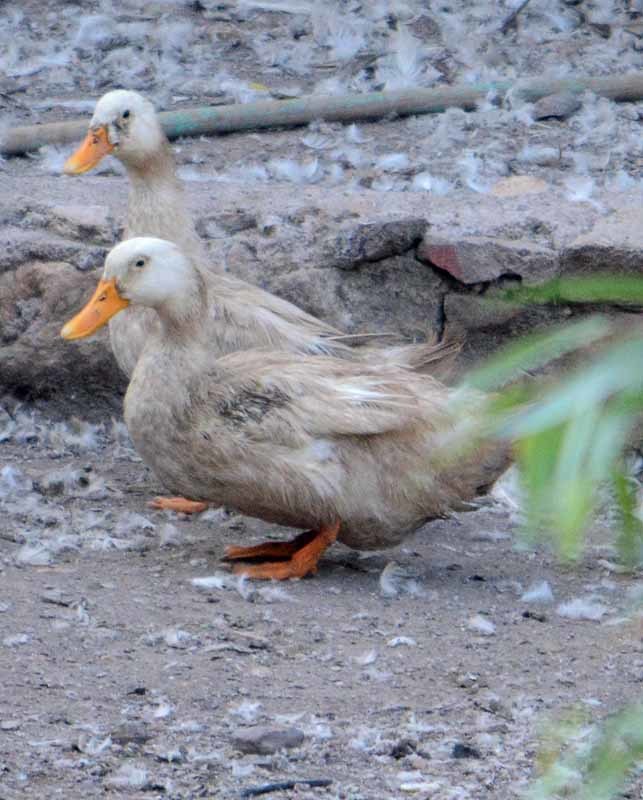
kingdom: Animalia
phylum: Chordata
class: Aves
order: Anseriformes
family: Anatidae
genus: Anas
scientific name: Anas platyrhynchos
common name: Mallard
